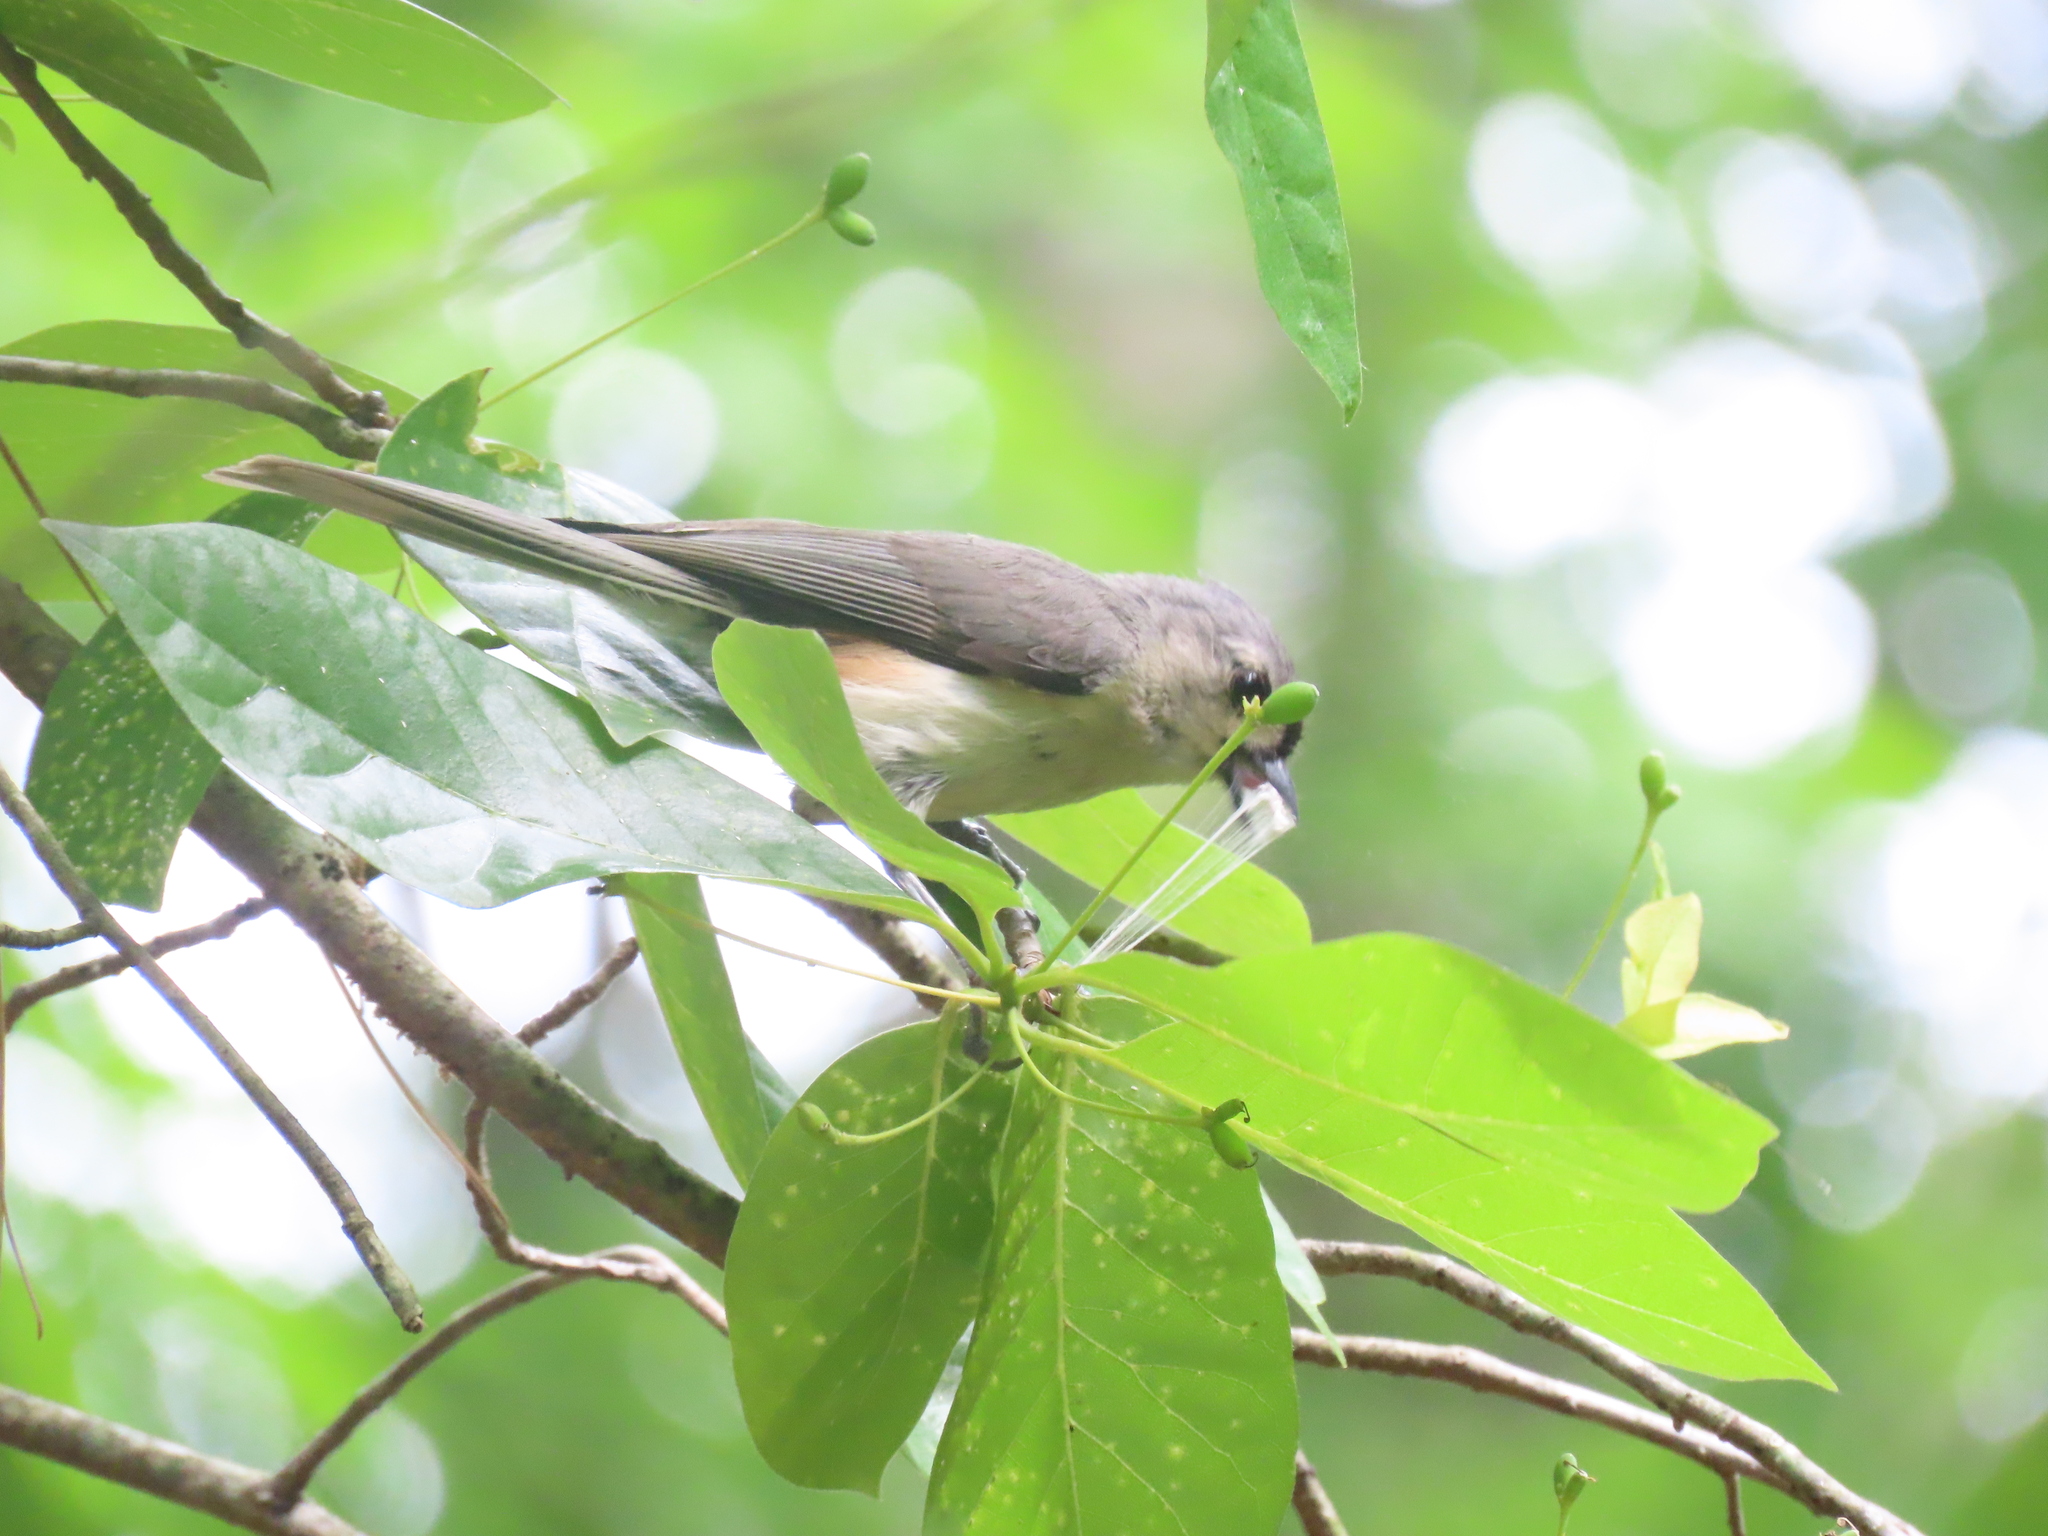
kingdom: Animalia
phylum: Chordata
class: Aves
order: Passeriformes
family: Paridae
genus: Baeolophus
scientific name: Baeolophus bicolor
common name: Tufted titmouse
